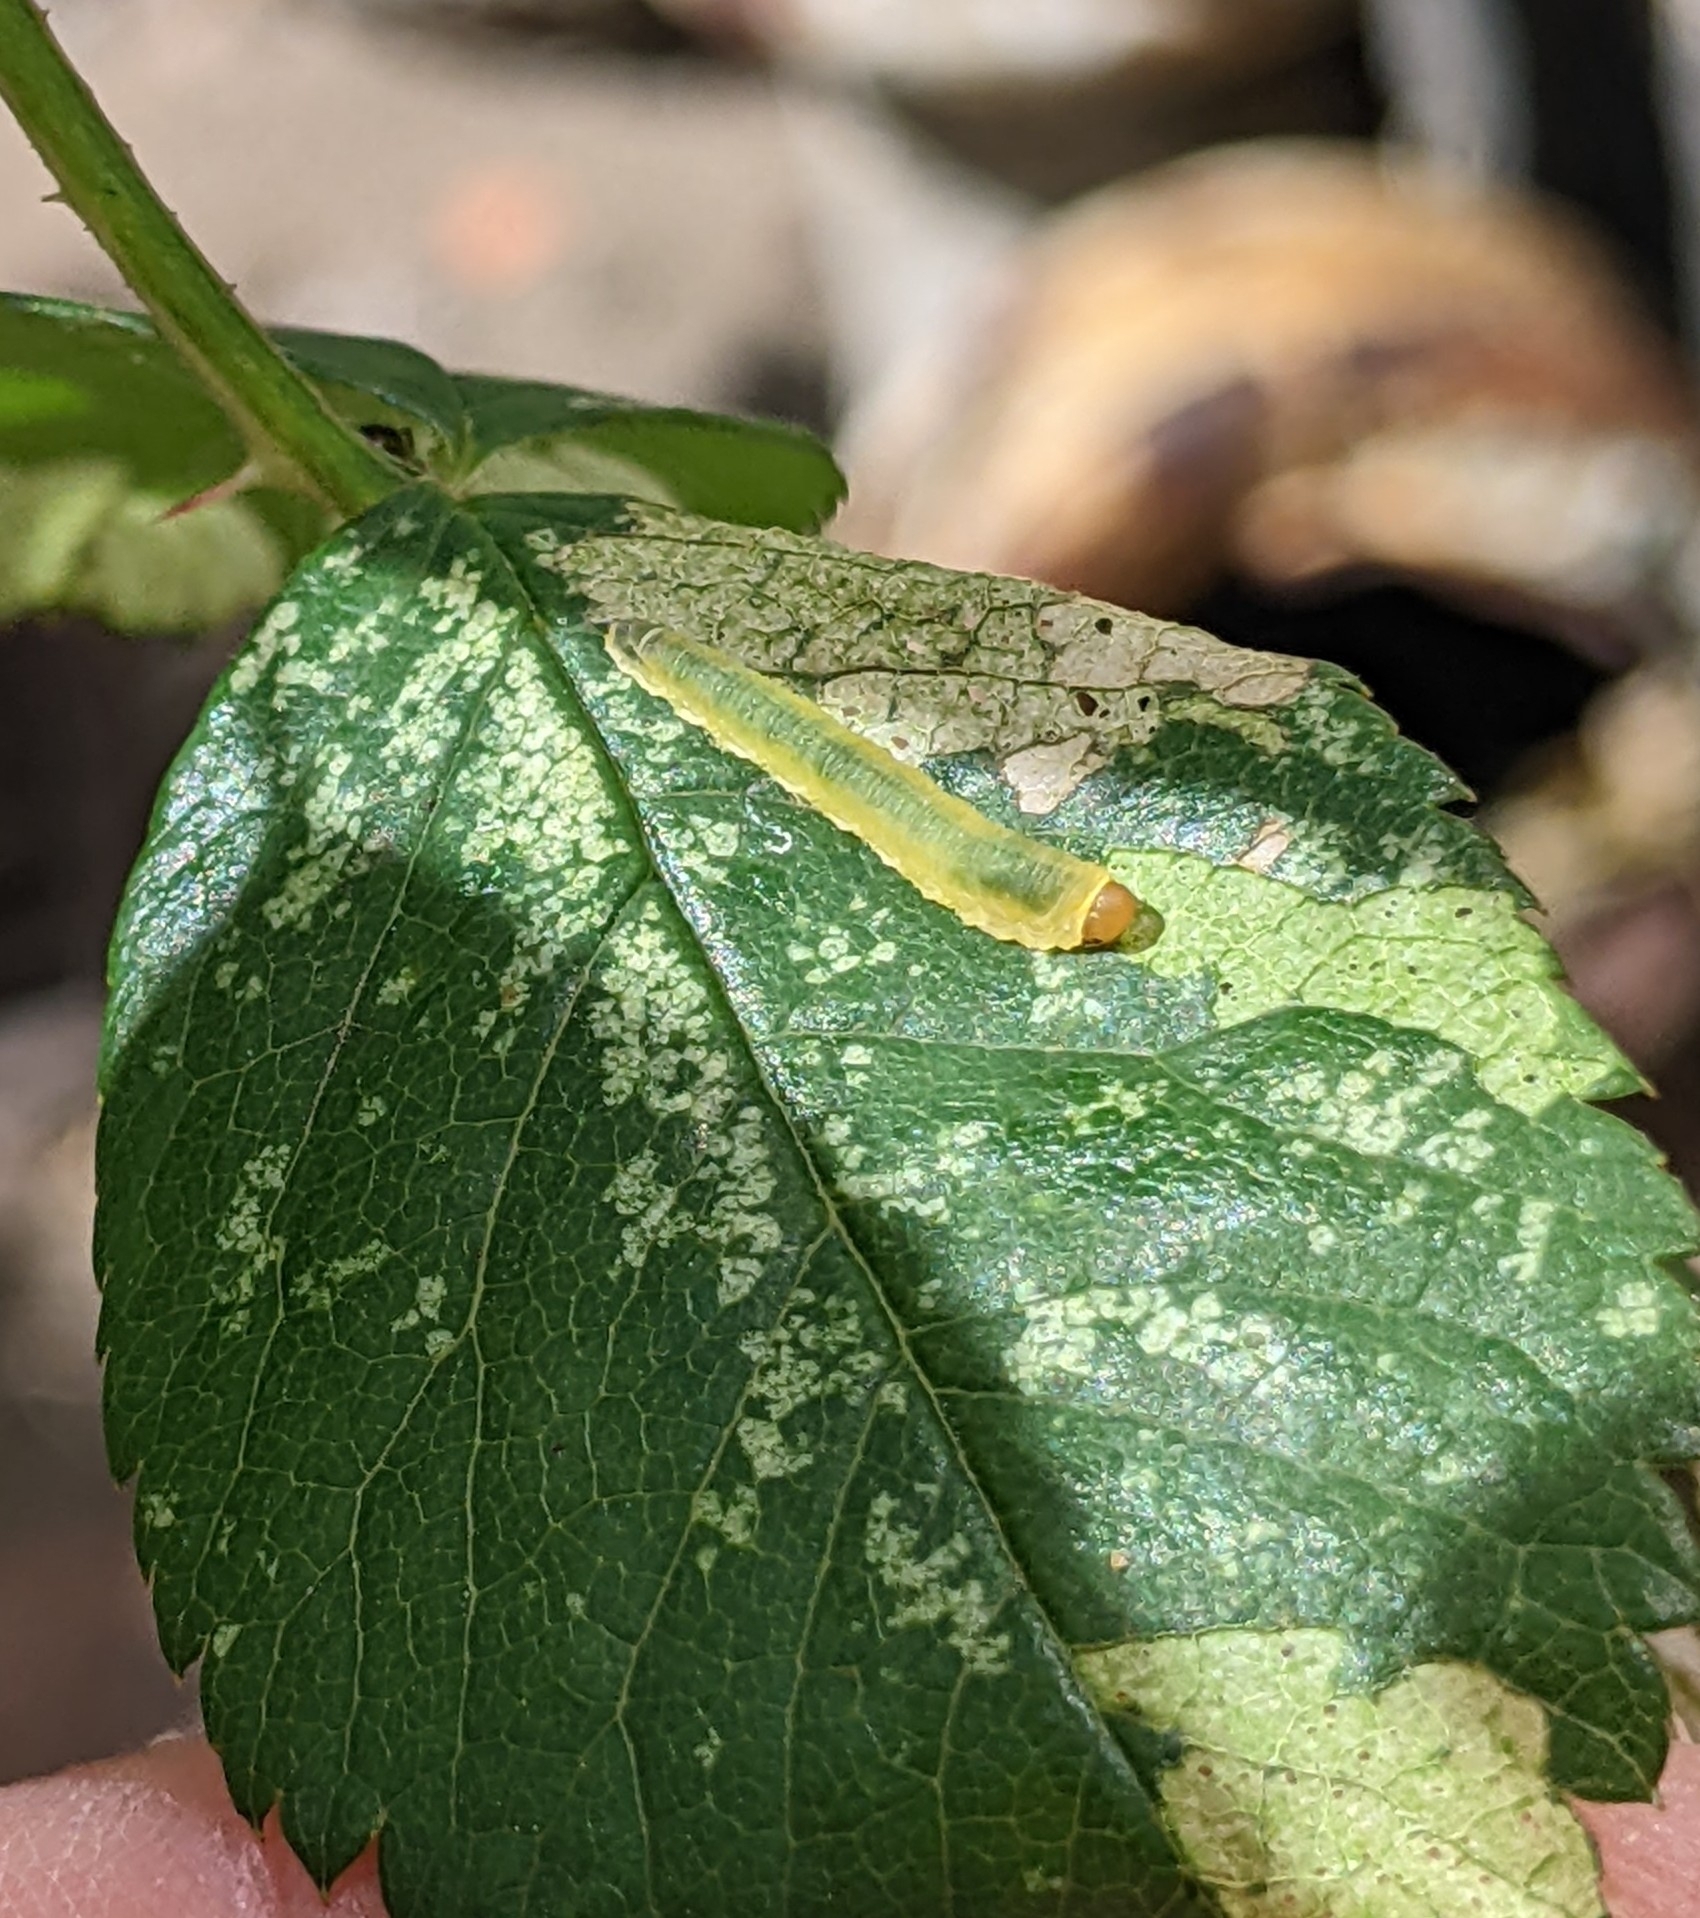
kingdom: Animalia
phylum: Arthropoda
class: Insecta
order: Hymenoptera
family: Tenthredinidae
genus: Endelomyia
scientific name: Endelomyia aethiops
